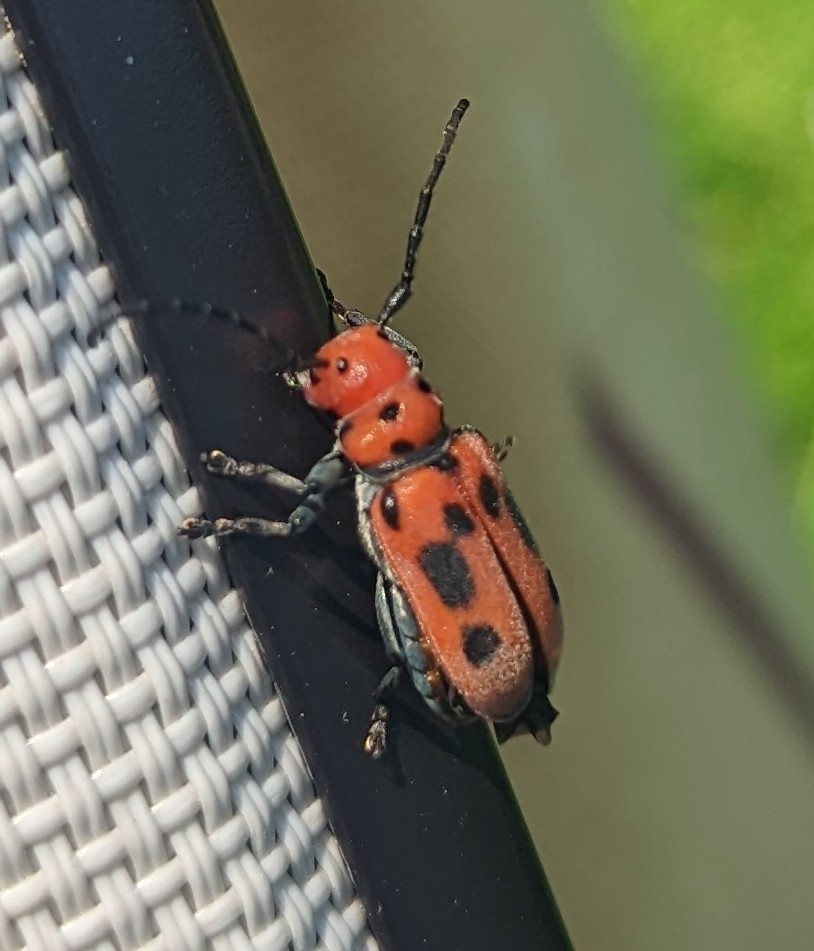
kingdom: Animalia
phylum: Arthropoda
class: Insecta
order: Coleoptera
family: Cerambycidae
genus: Tetraopes
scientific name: Tetraopes tetrophthalmus
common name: Red milkweed beetle
